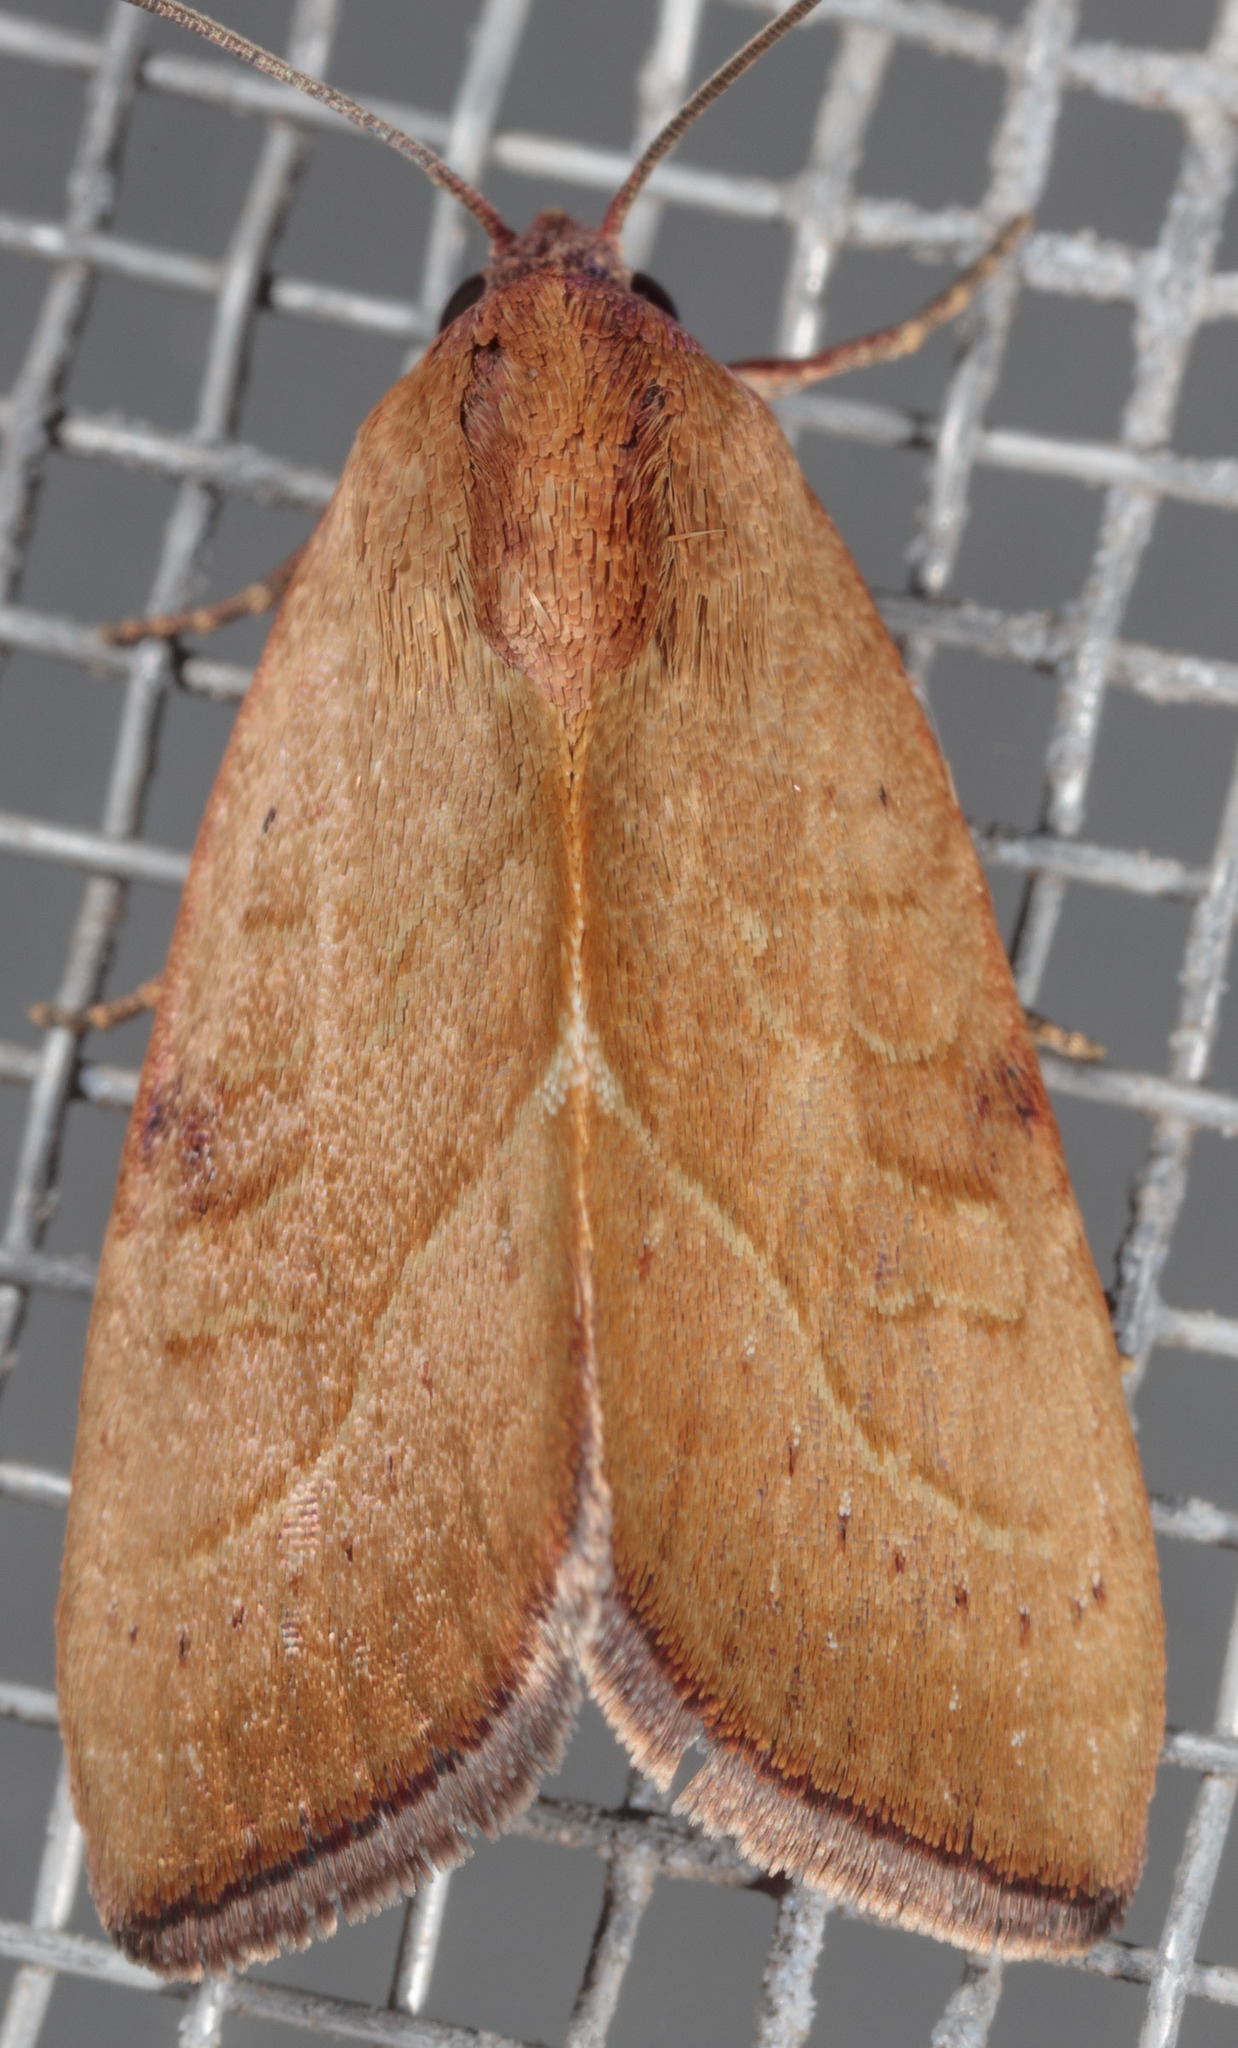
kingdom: Animalia
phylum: Arthropoda
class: Insecta
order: Lepidoptera
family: Noctuidae
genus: Galgula
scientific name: Galgula partita
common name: Wedgeling
